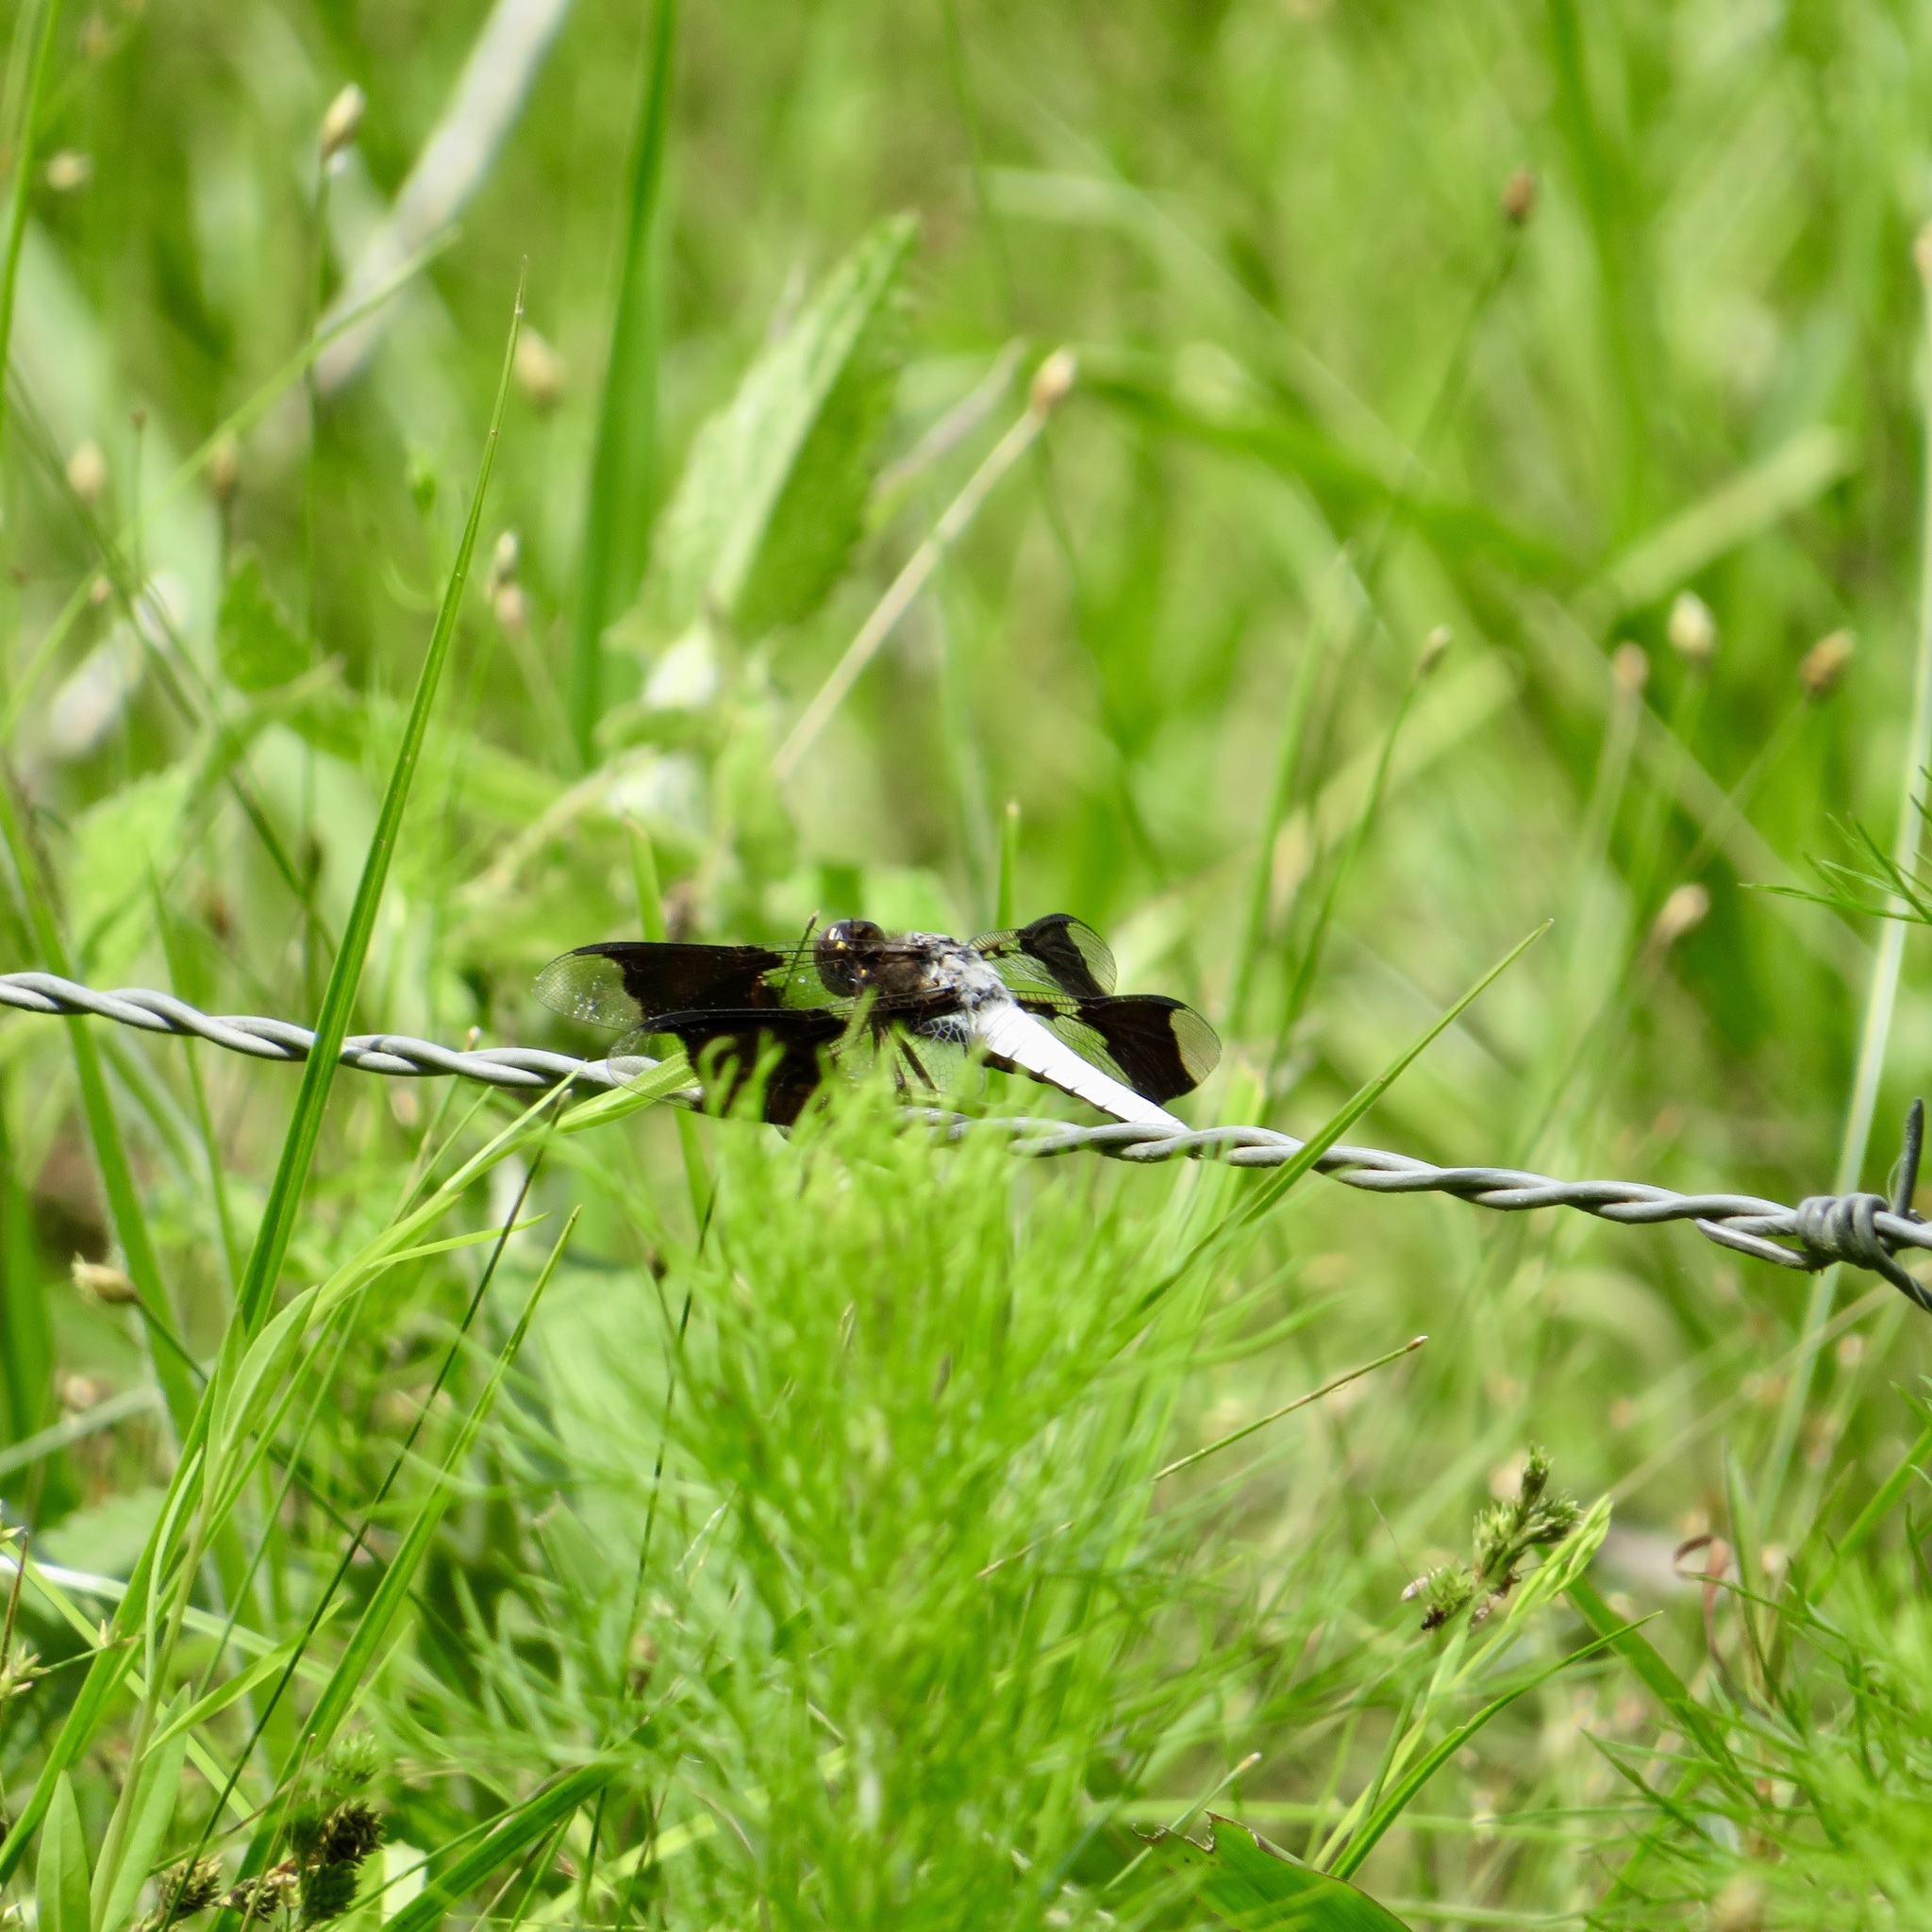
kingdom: Animalia
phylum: Arthropoda
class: Insecta
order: Odonata
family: Libellulidae
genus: Plathemis
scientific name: Plathemis lydia
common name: Common whitetail
